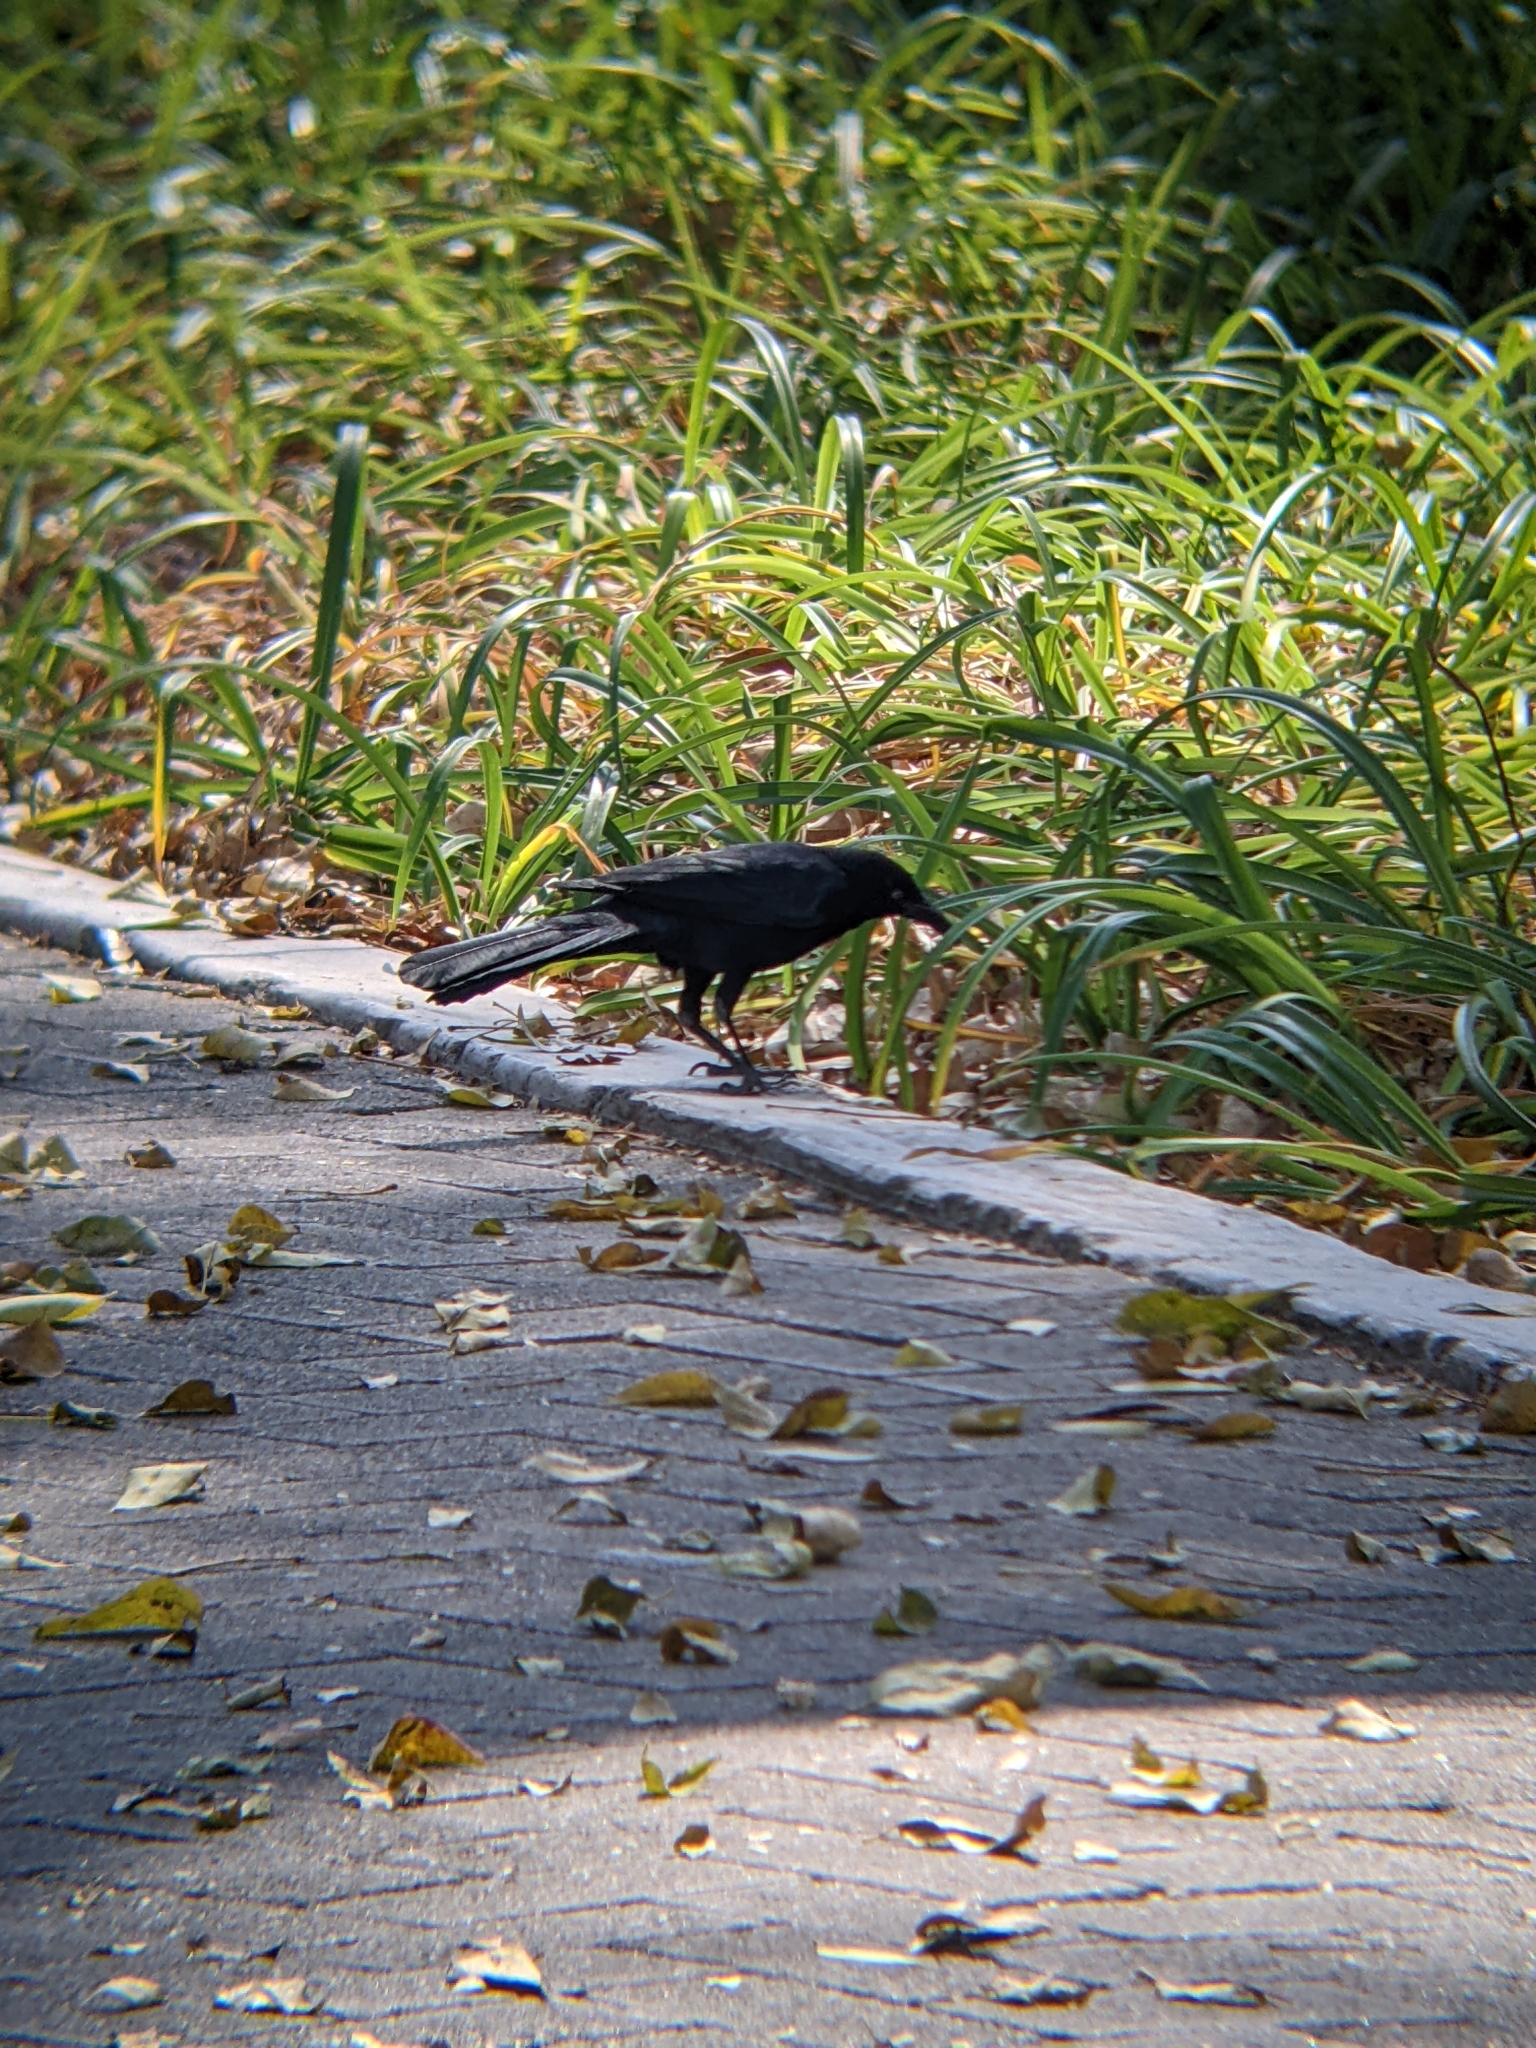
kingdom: Animalia
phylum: Chordata
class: Aves
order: Passeriformes
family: Icteridae
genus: Quiscalus
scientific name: Quiscalus mexicanus
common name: Great-tailed grackle
